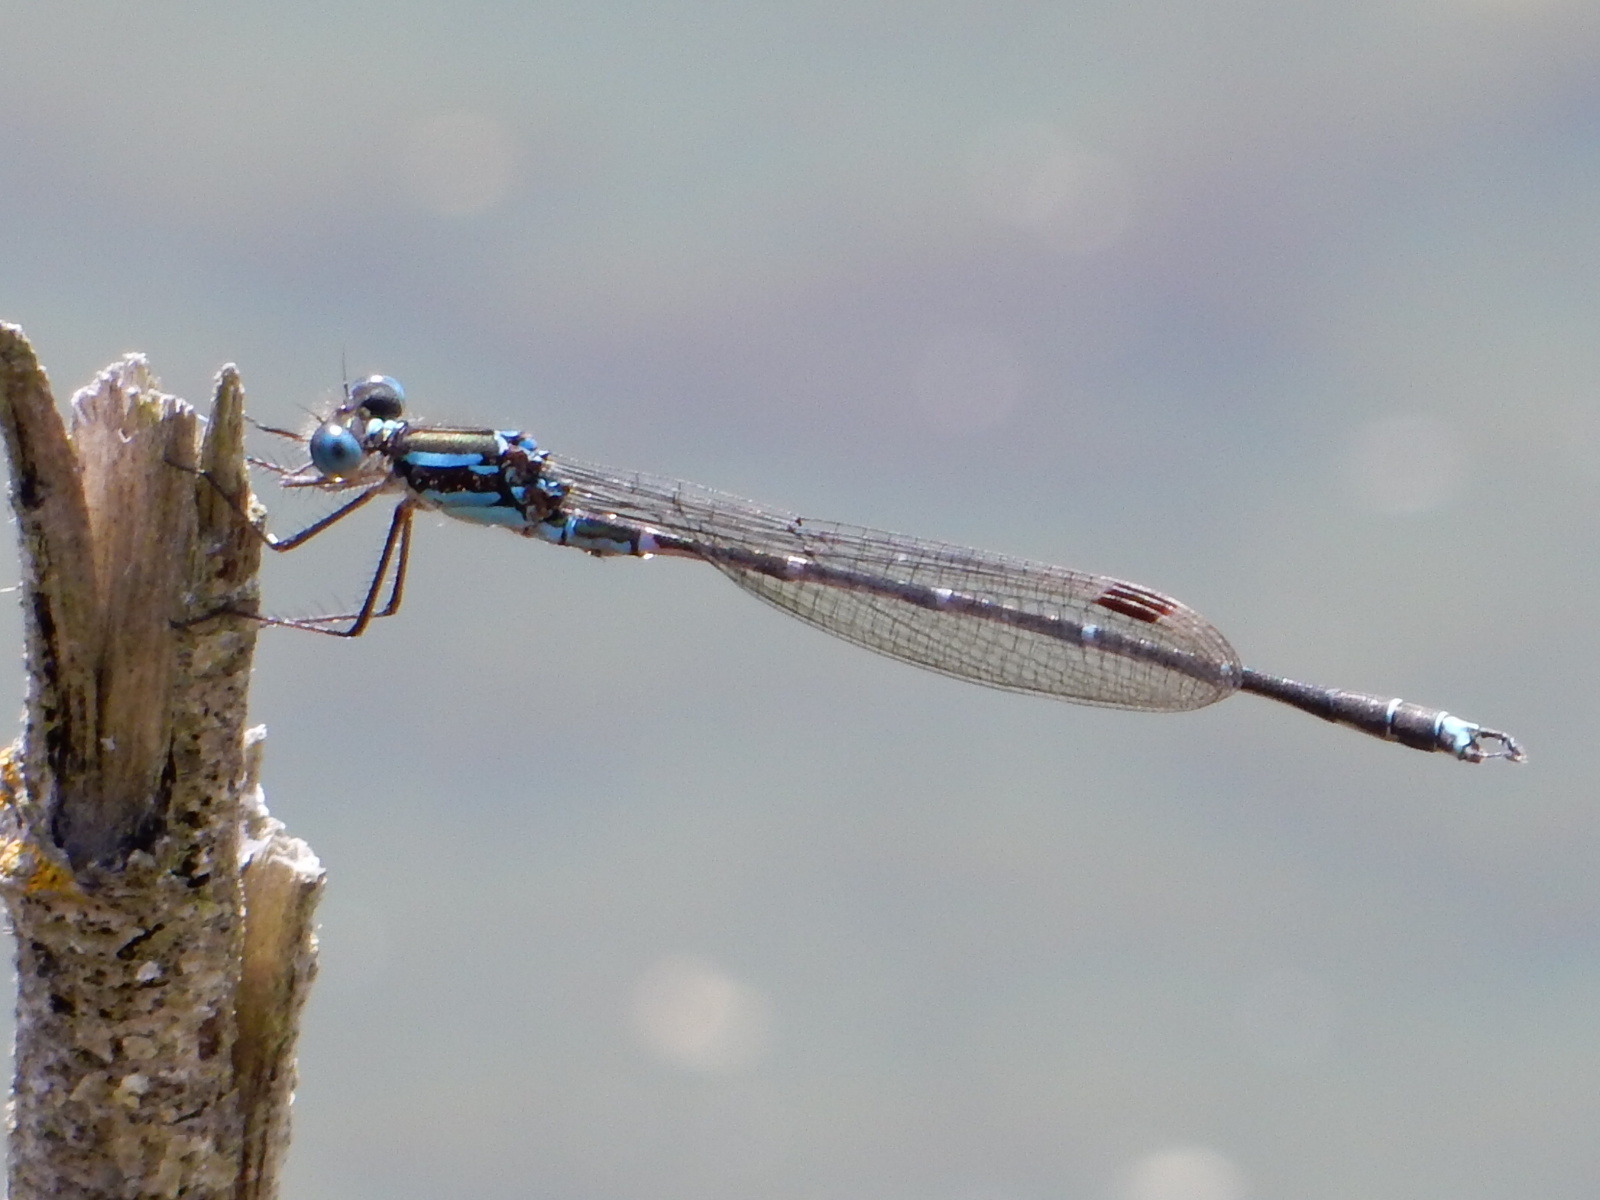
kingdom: Animalia
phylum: Arthropoda
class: Insecta
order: Odonata
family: Lestidae
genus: Austrolestes
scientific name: Austrolestes colensonis
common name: Blue damselfly
